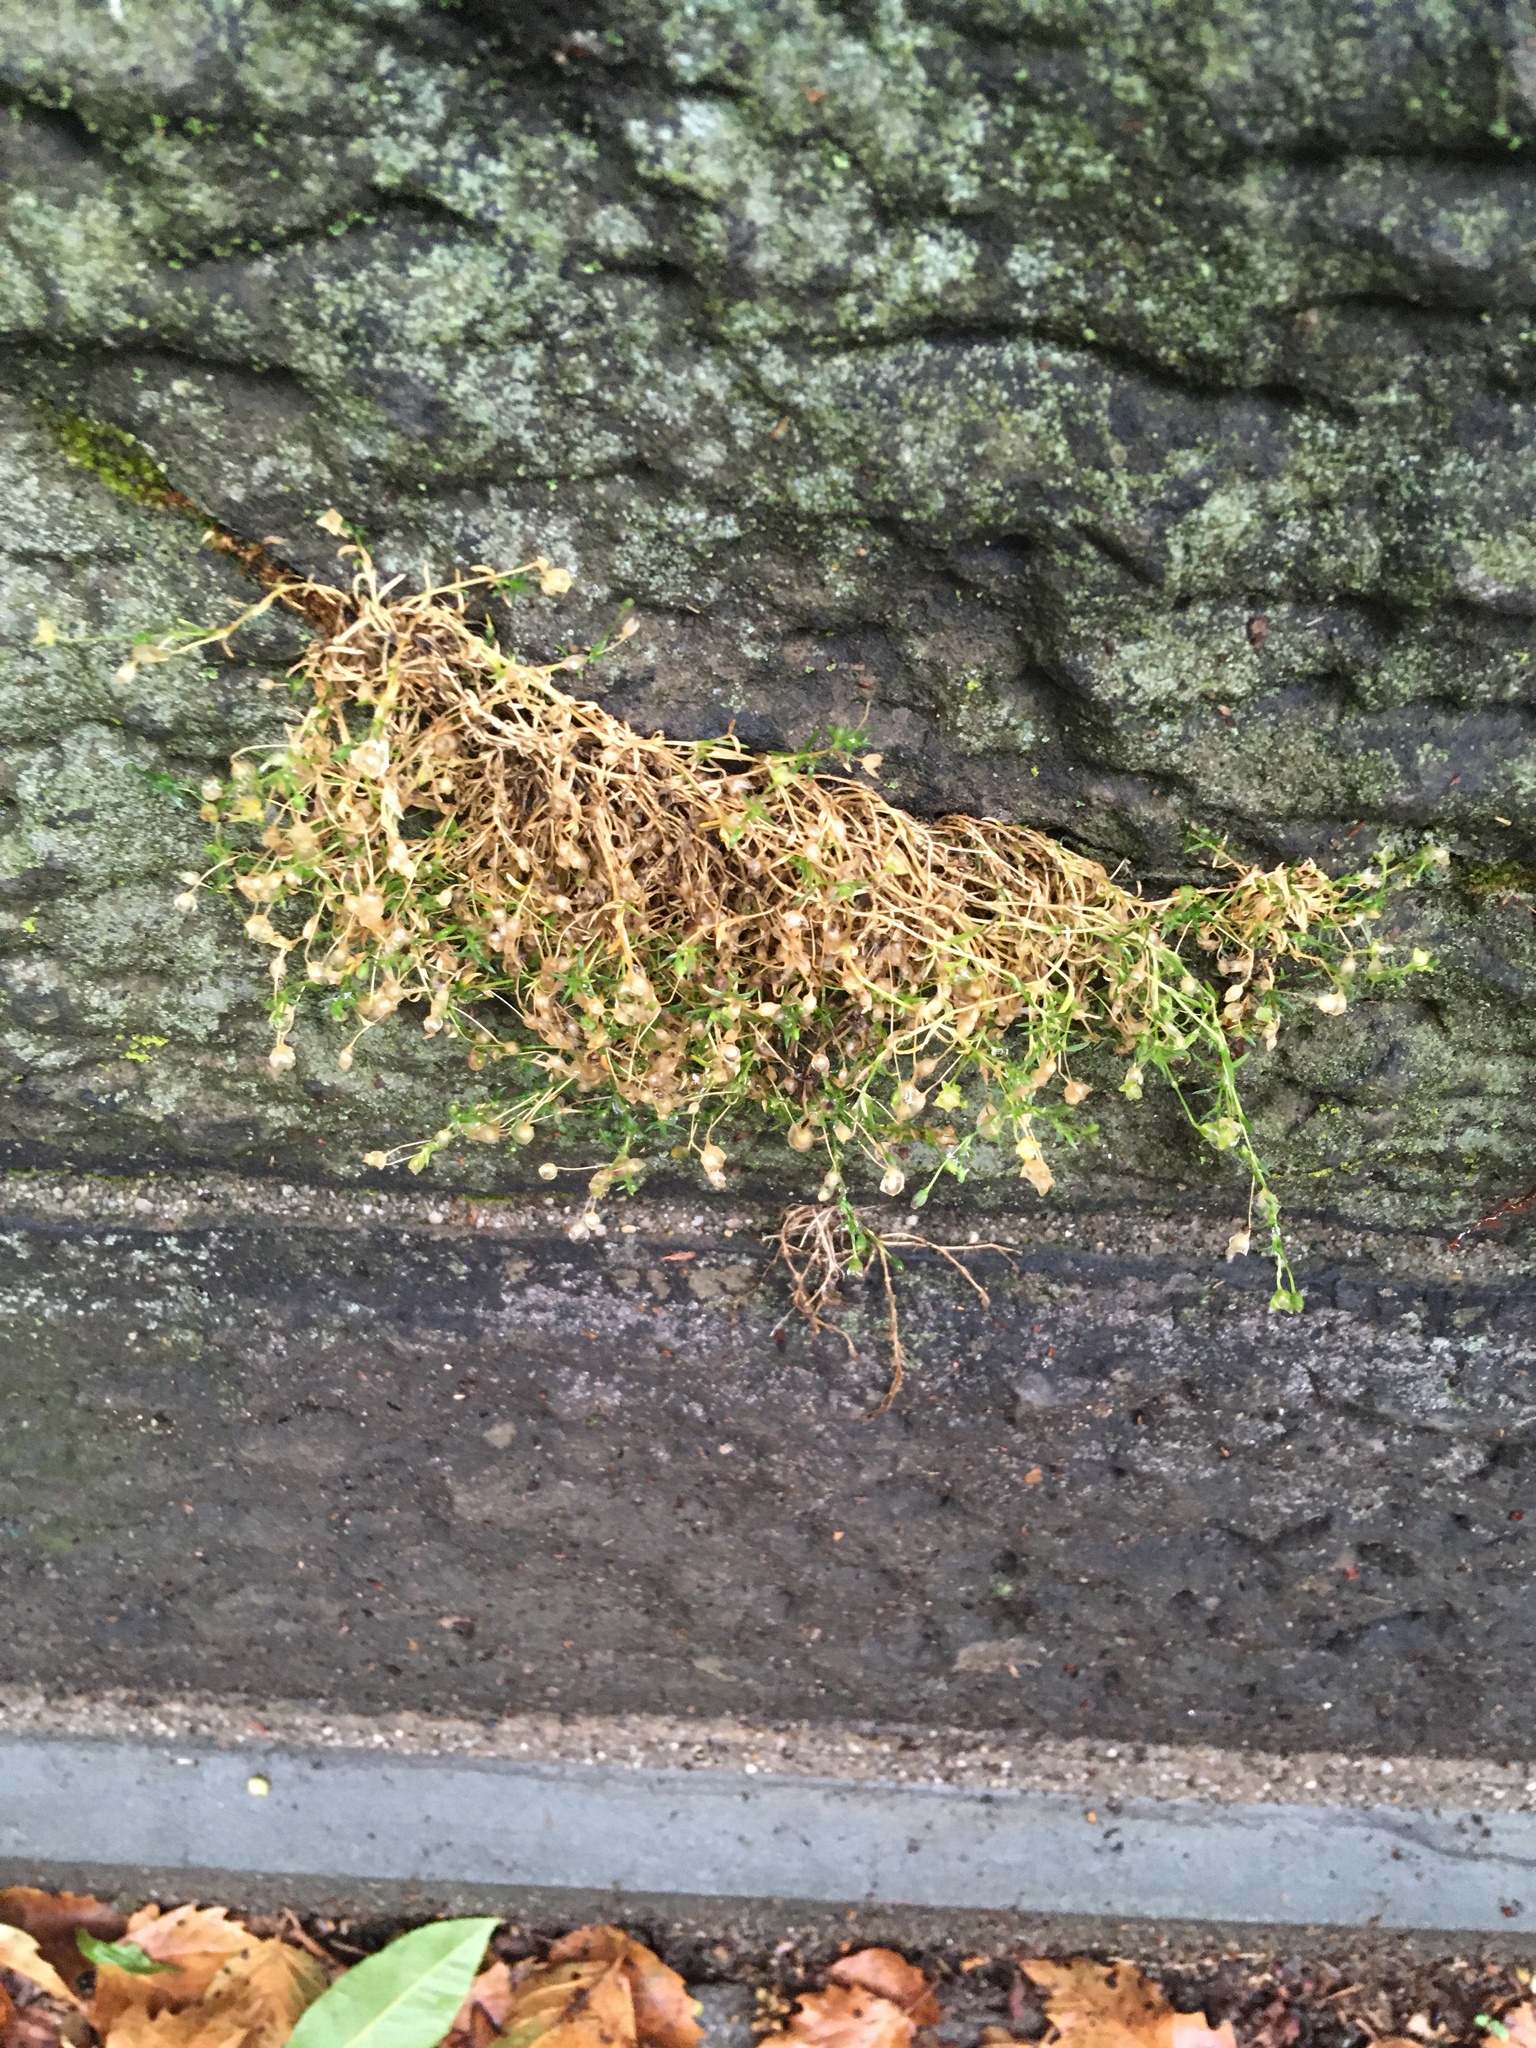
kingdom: Plantae
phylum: Tracheophyta
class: Magnoliopsida
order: Caryophyllales
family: Caryophyllaceae
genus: Sagina
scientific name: Sagina procumbens
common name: Procumbent pearlwort
